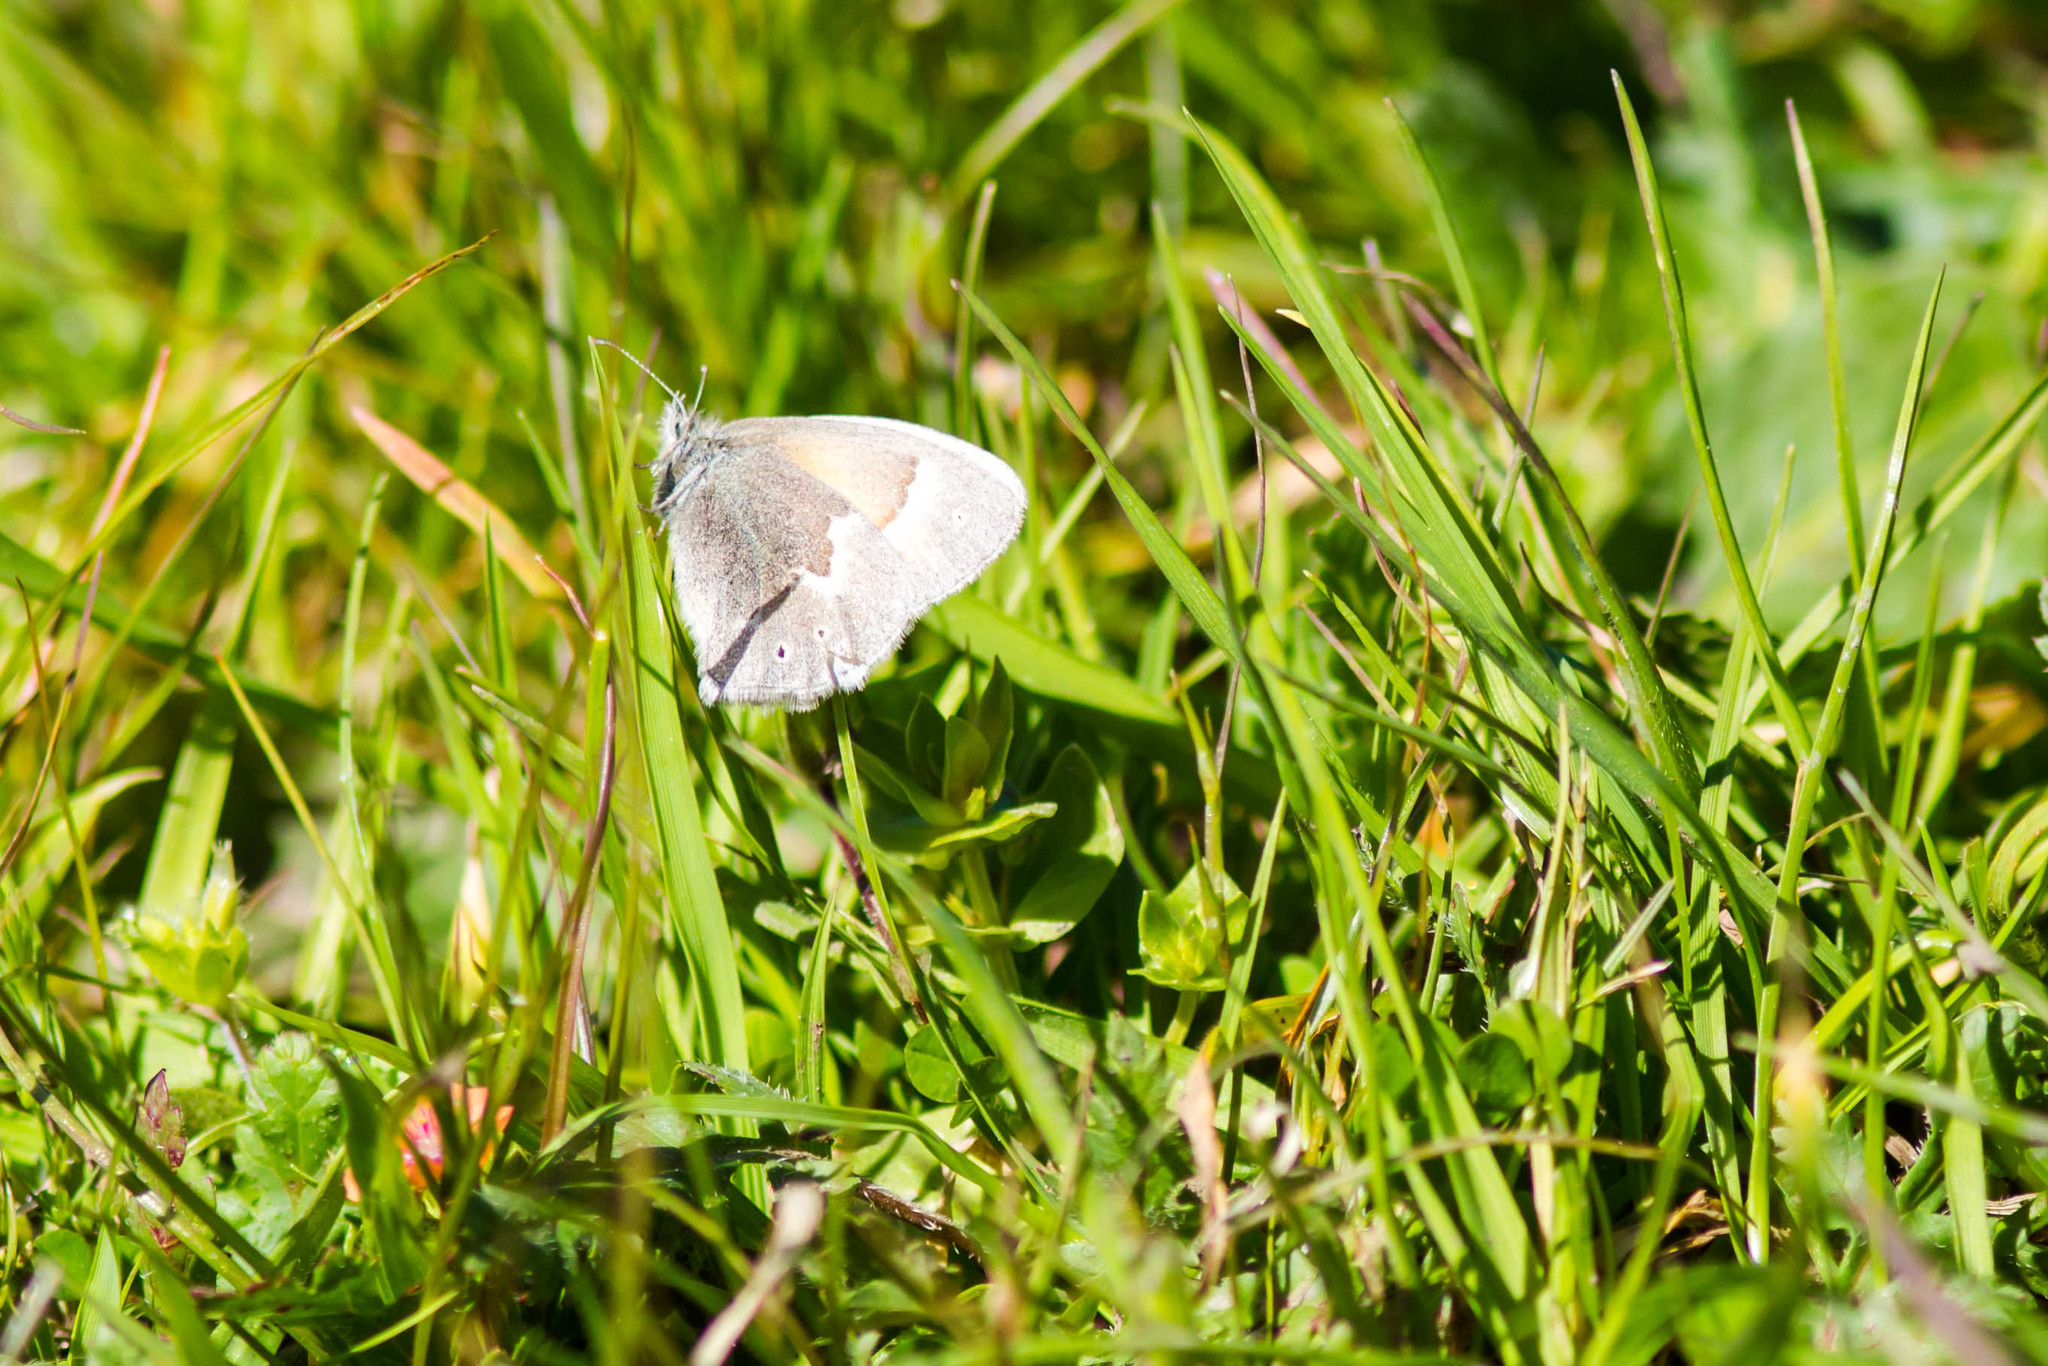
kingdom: Animalia
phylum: Arthropoda
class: Insecta
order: Lepidoptera
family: Nymphalidae
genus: Coenonympha
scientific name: Coenonympha california
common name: Common ringlet
